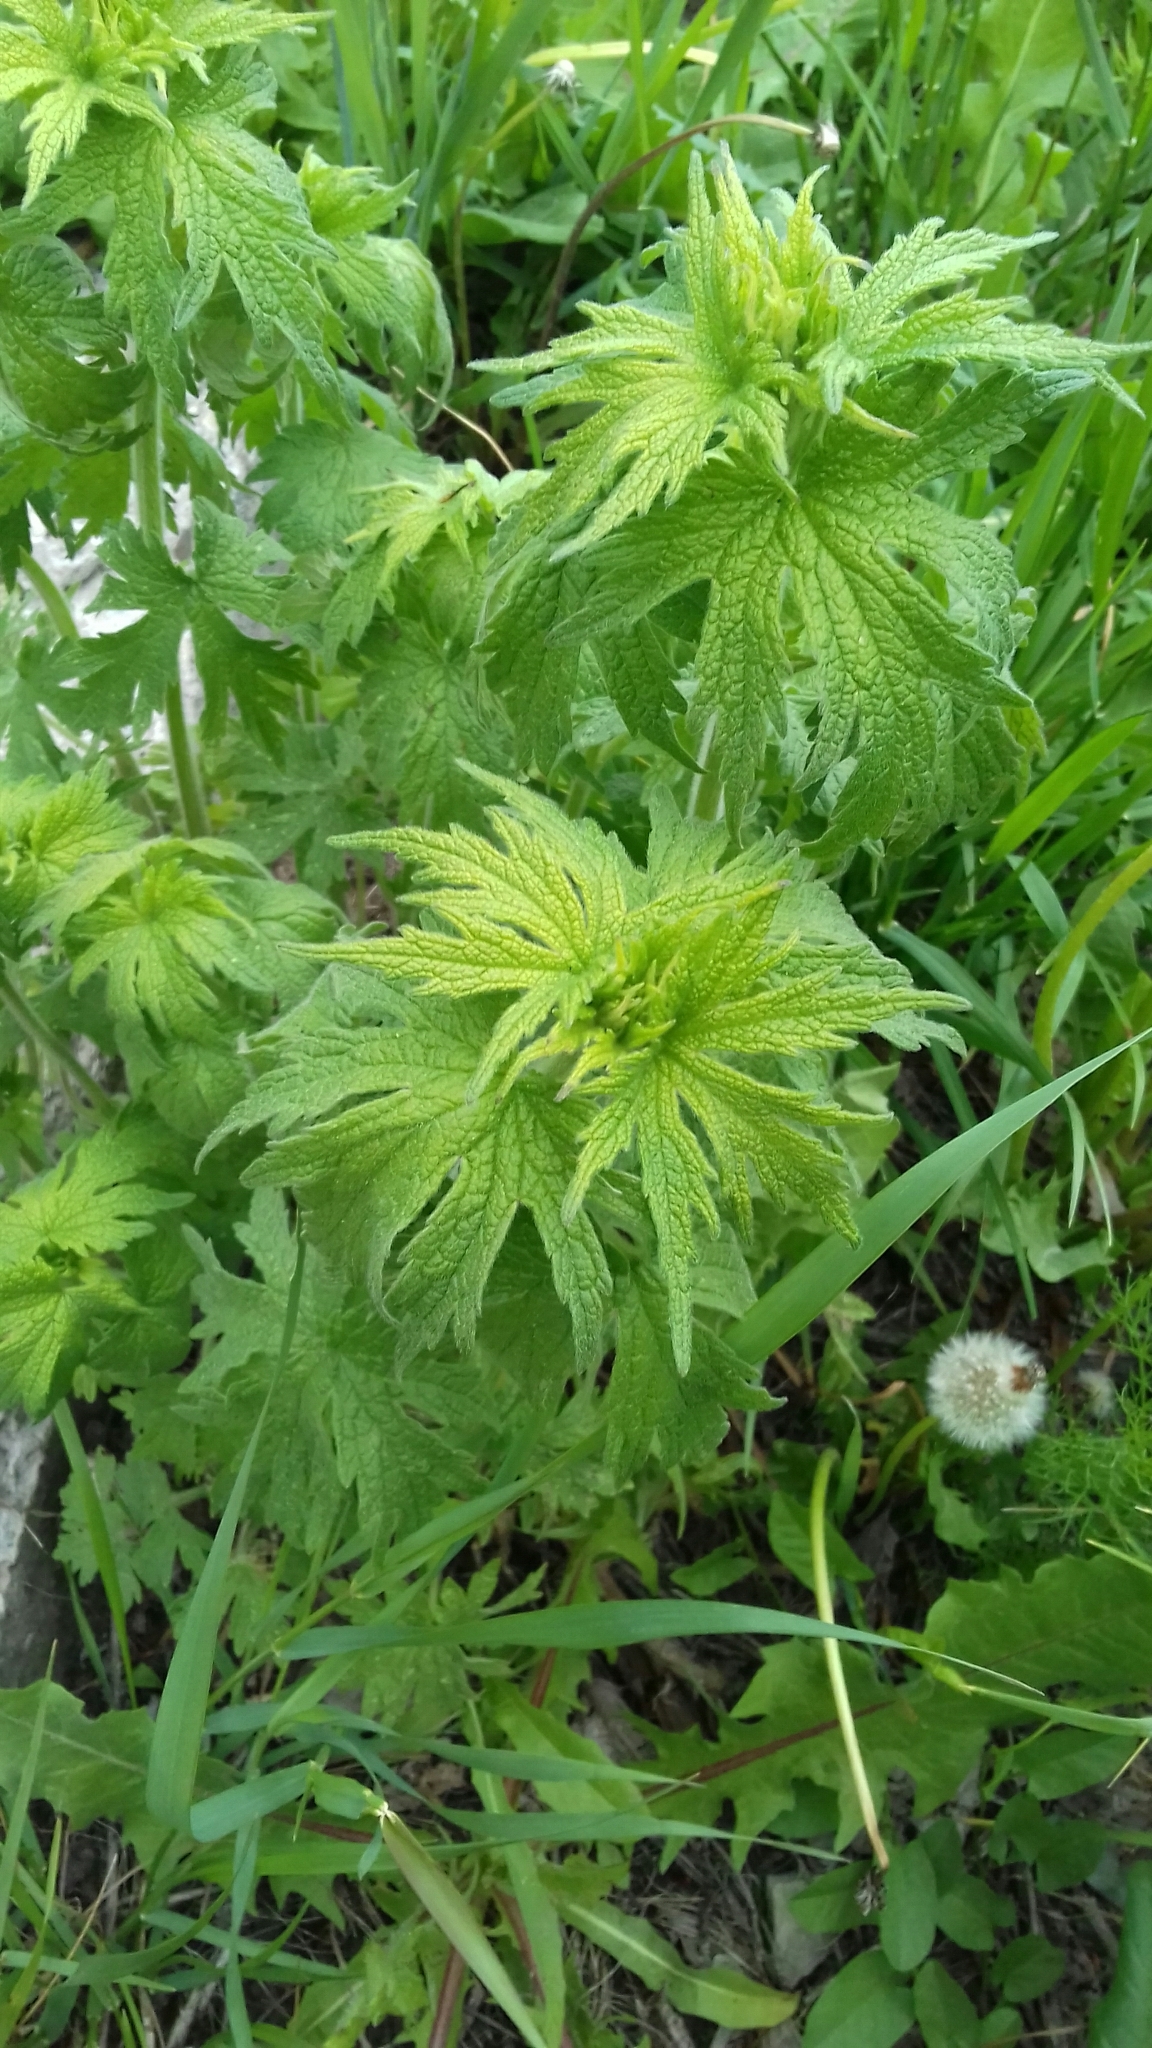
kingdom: Plantae
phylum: Tracheophyta
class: Magnoliopsida
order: Lamiales
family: Lamiaceae
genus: Leonurus
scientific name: Leonurus quinquelobatus
